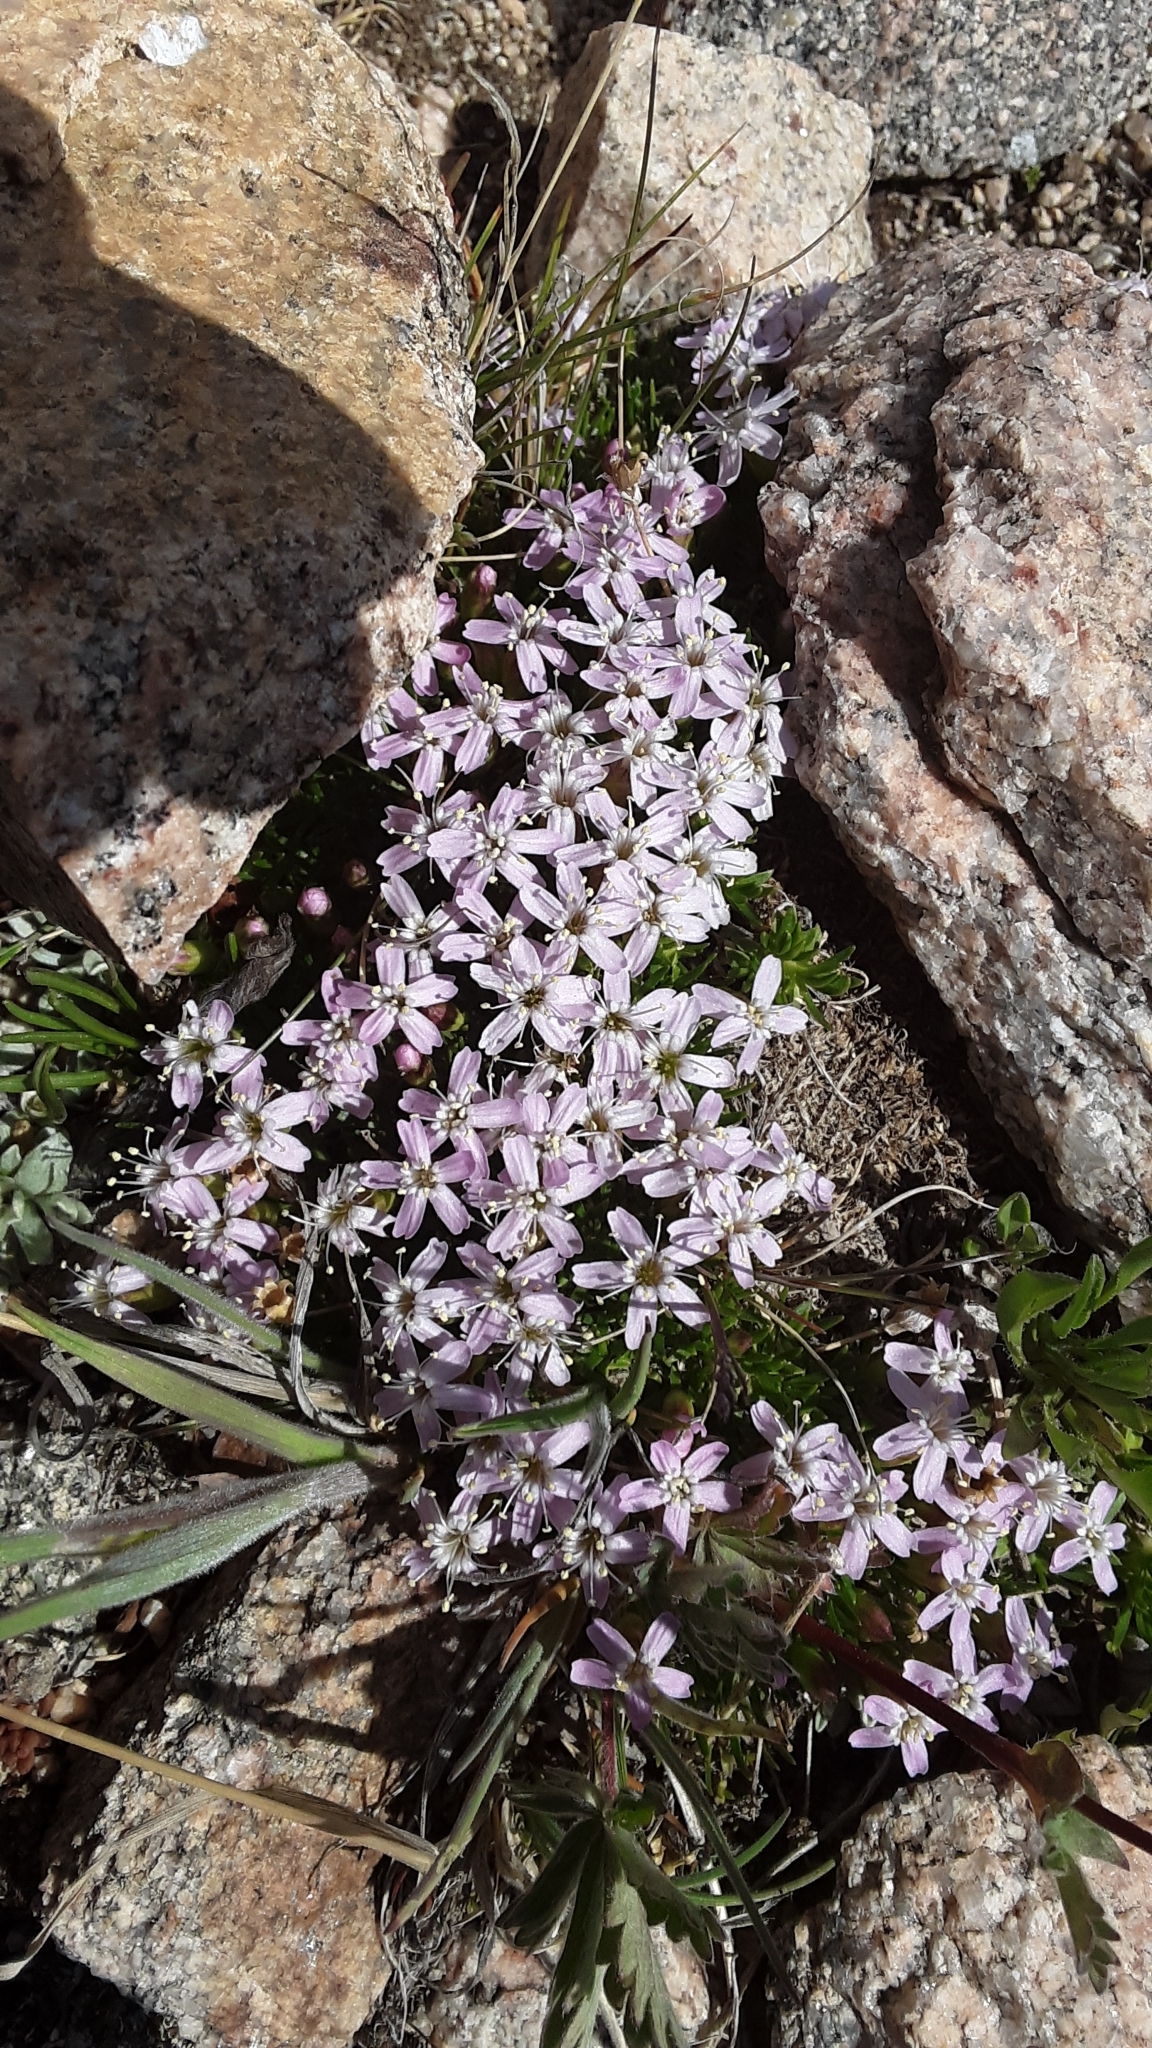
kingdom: Plantae
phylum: Tracheophyta
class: Magnoliopsida
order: Caryophyllales
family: Caryophyllaceae
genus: Silene
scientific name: Silene acaulis
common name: Moss campion
